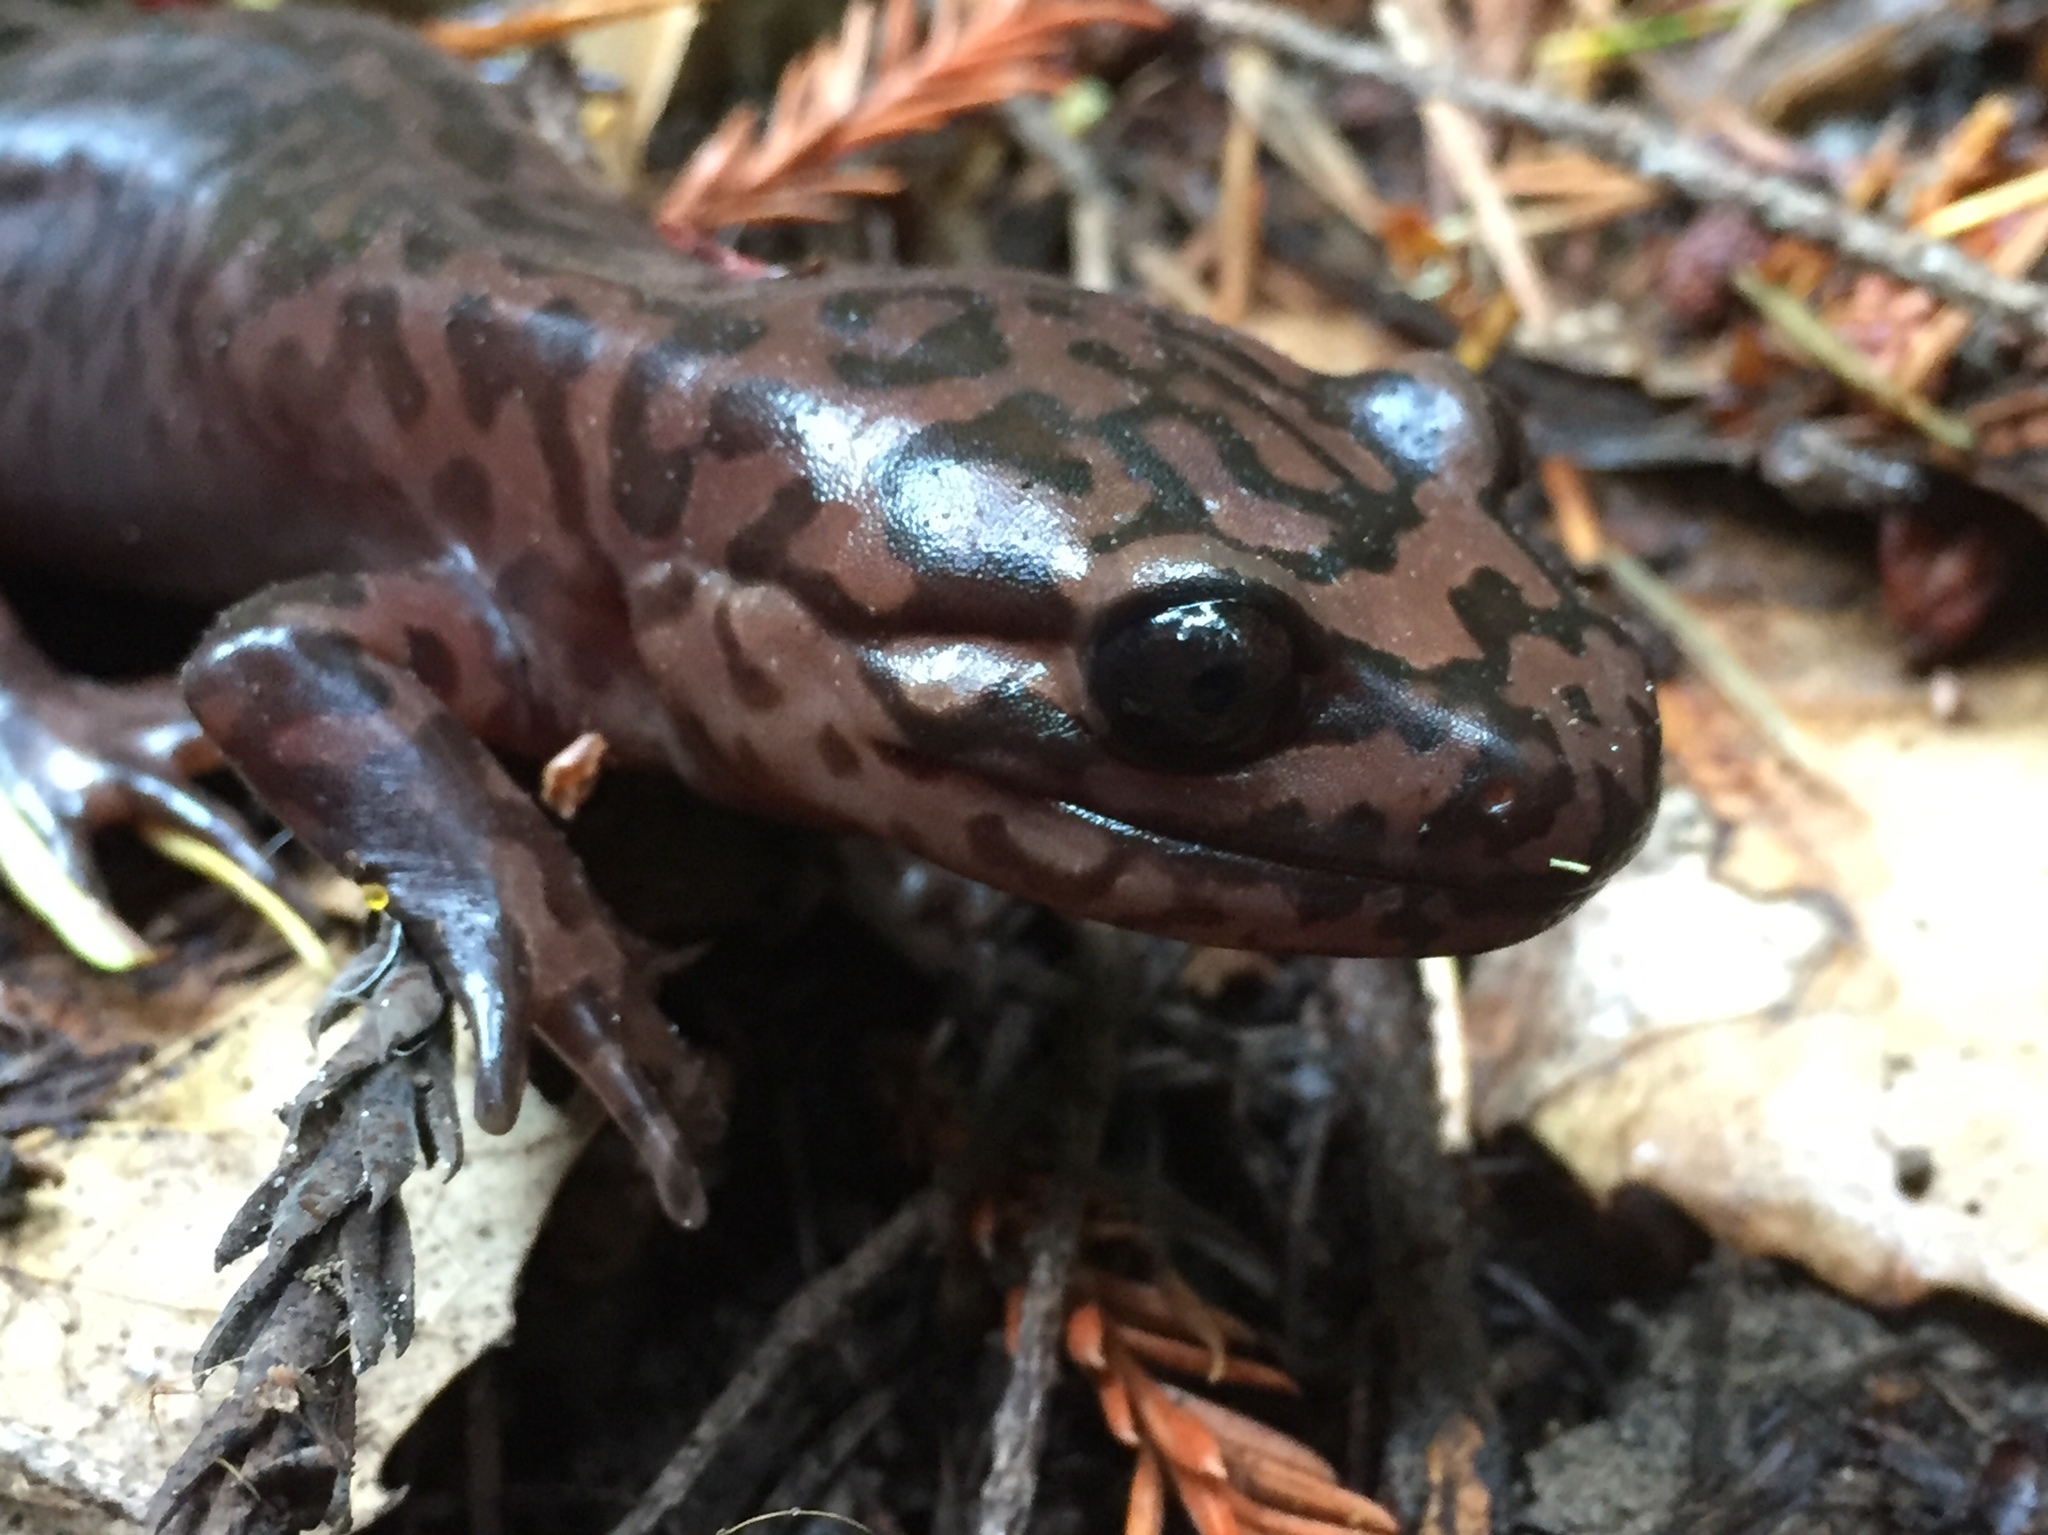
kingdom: Animalia
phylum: Chordata
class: Amphibia
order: Caudata
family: Ambystomatidae
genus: Dicamptodon
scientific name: Dicamptodon ensatus
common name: California giant salamander
